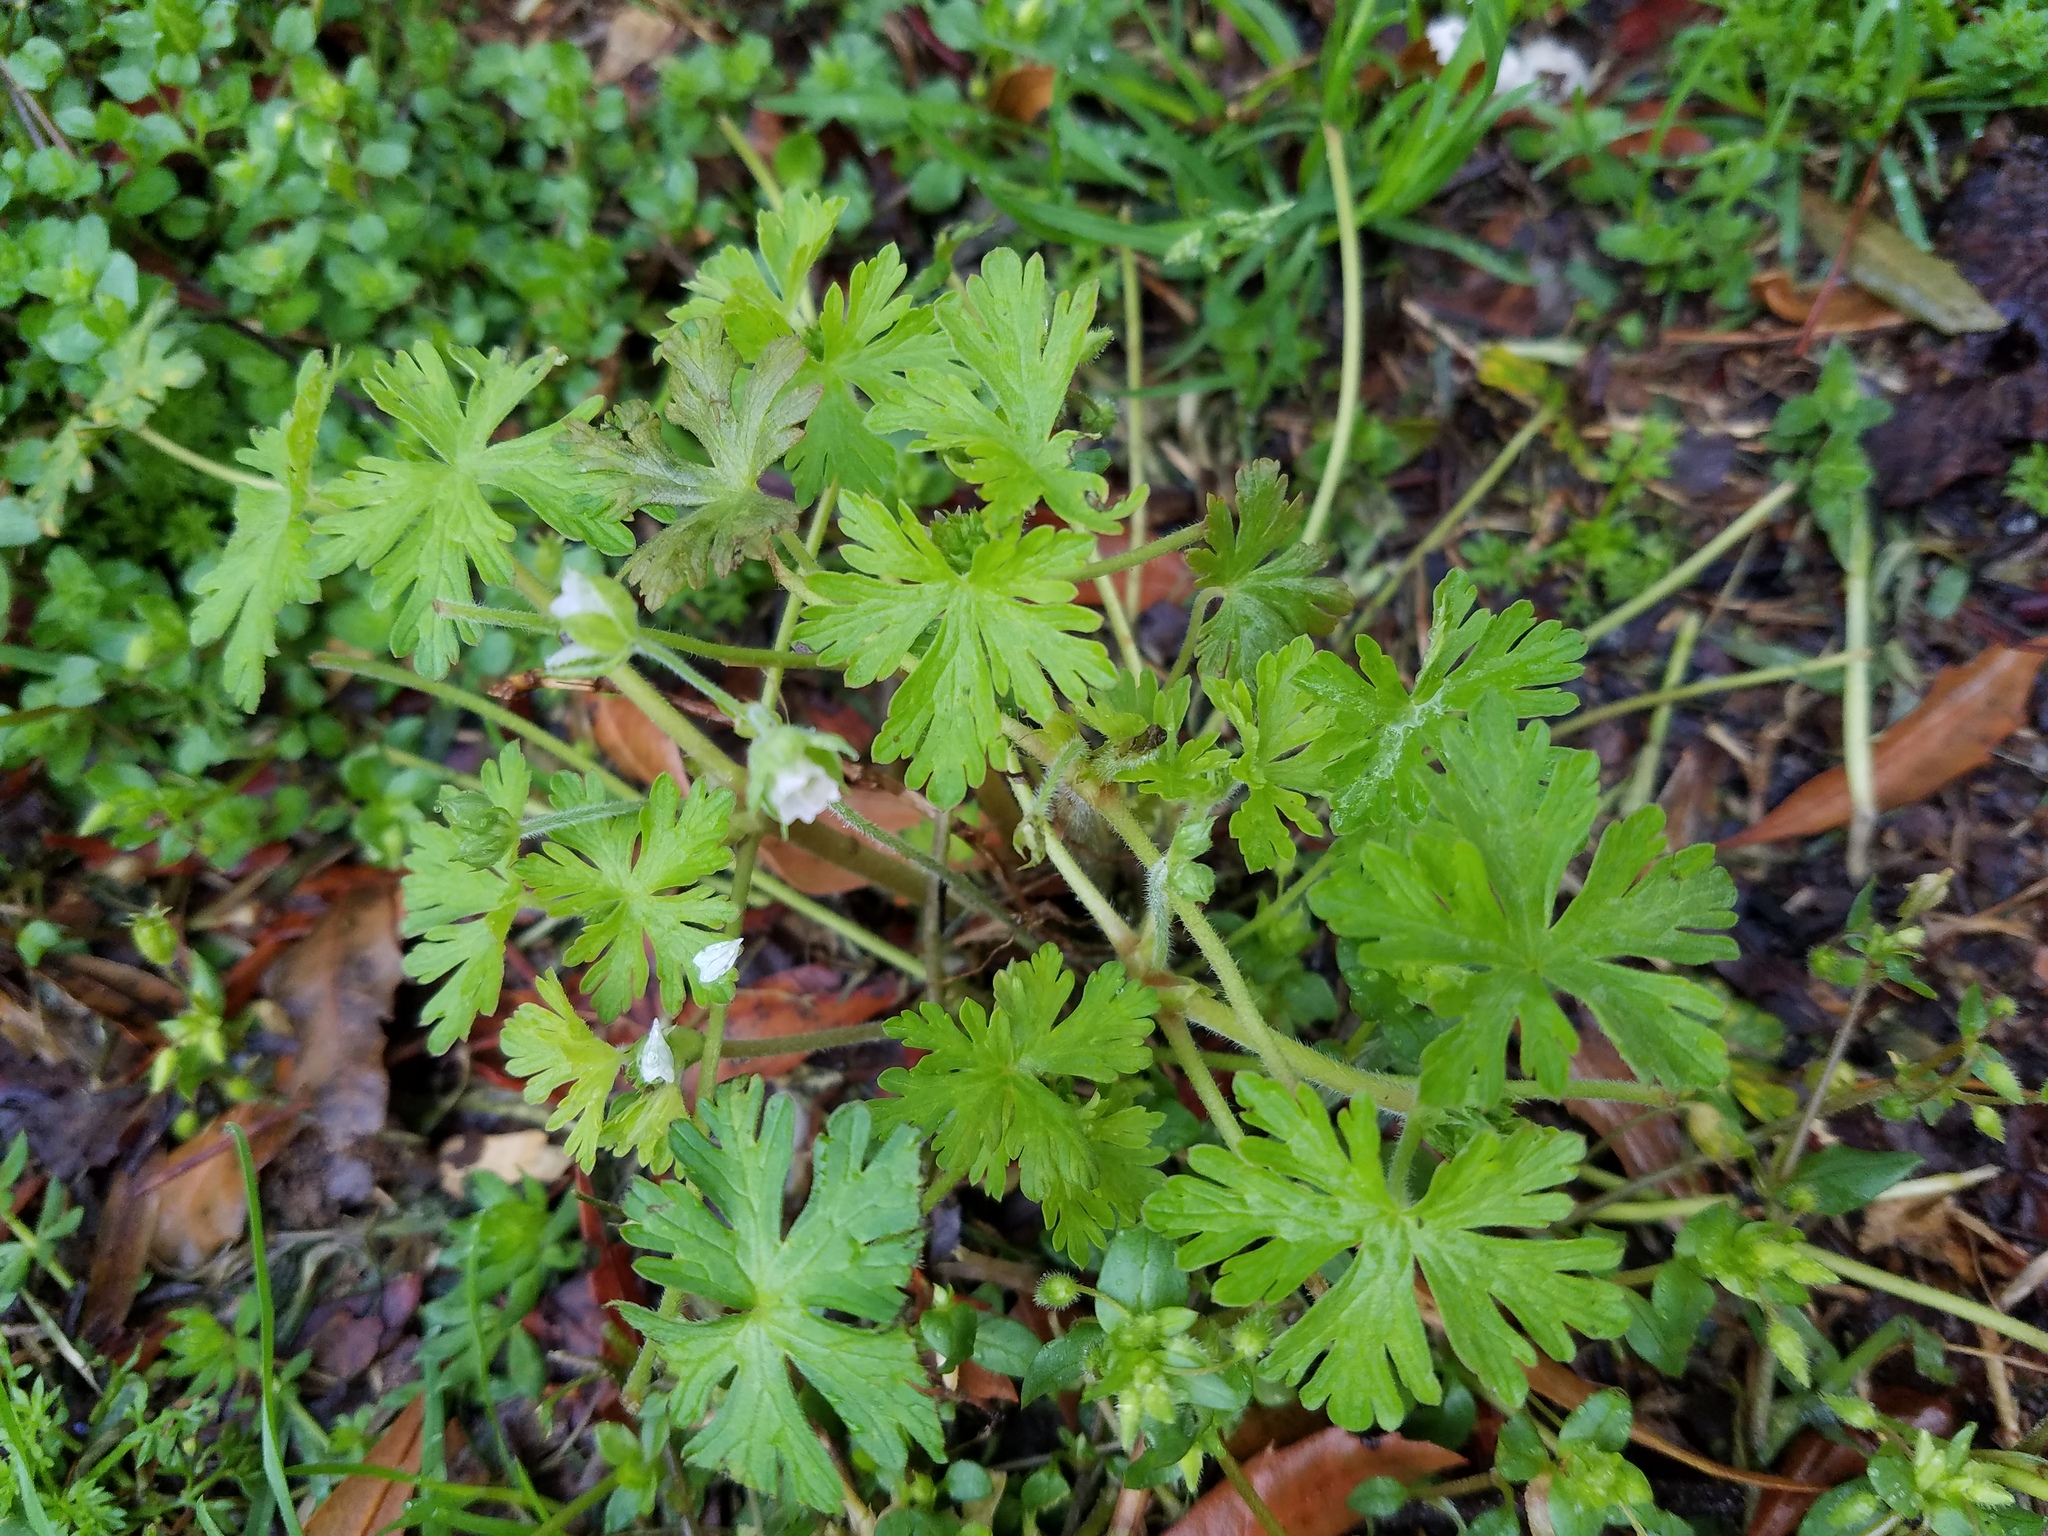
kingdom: Plantae
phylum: Tracheophyta
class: Magnoliopsida
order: Geraniales
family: Geraniaceae
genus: Geranium
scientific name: Geranium carolinianum
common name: Carolina crane's-bill
